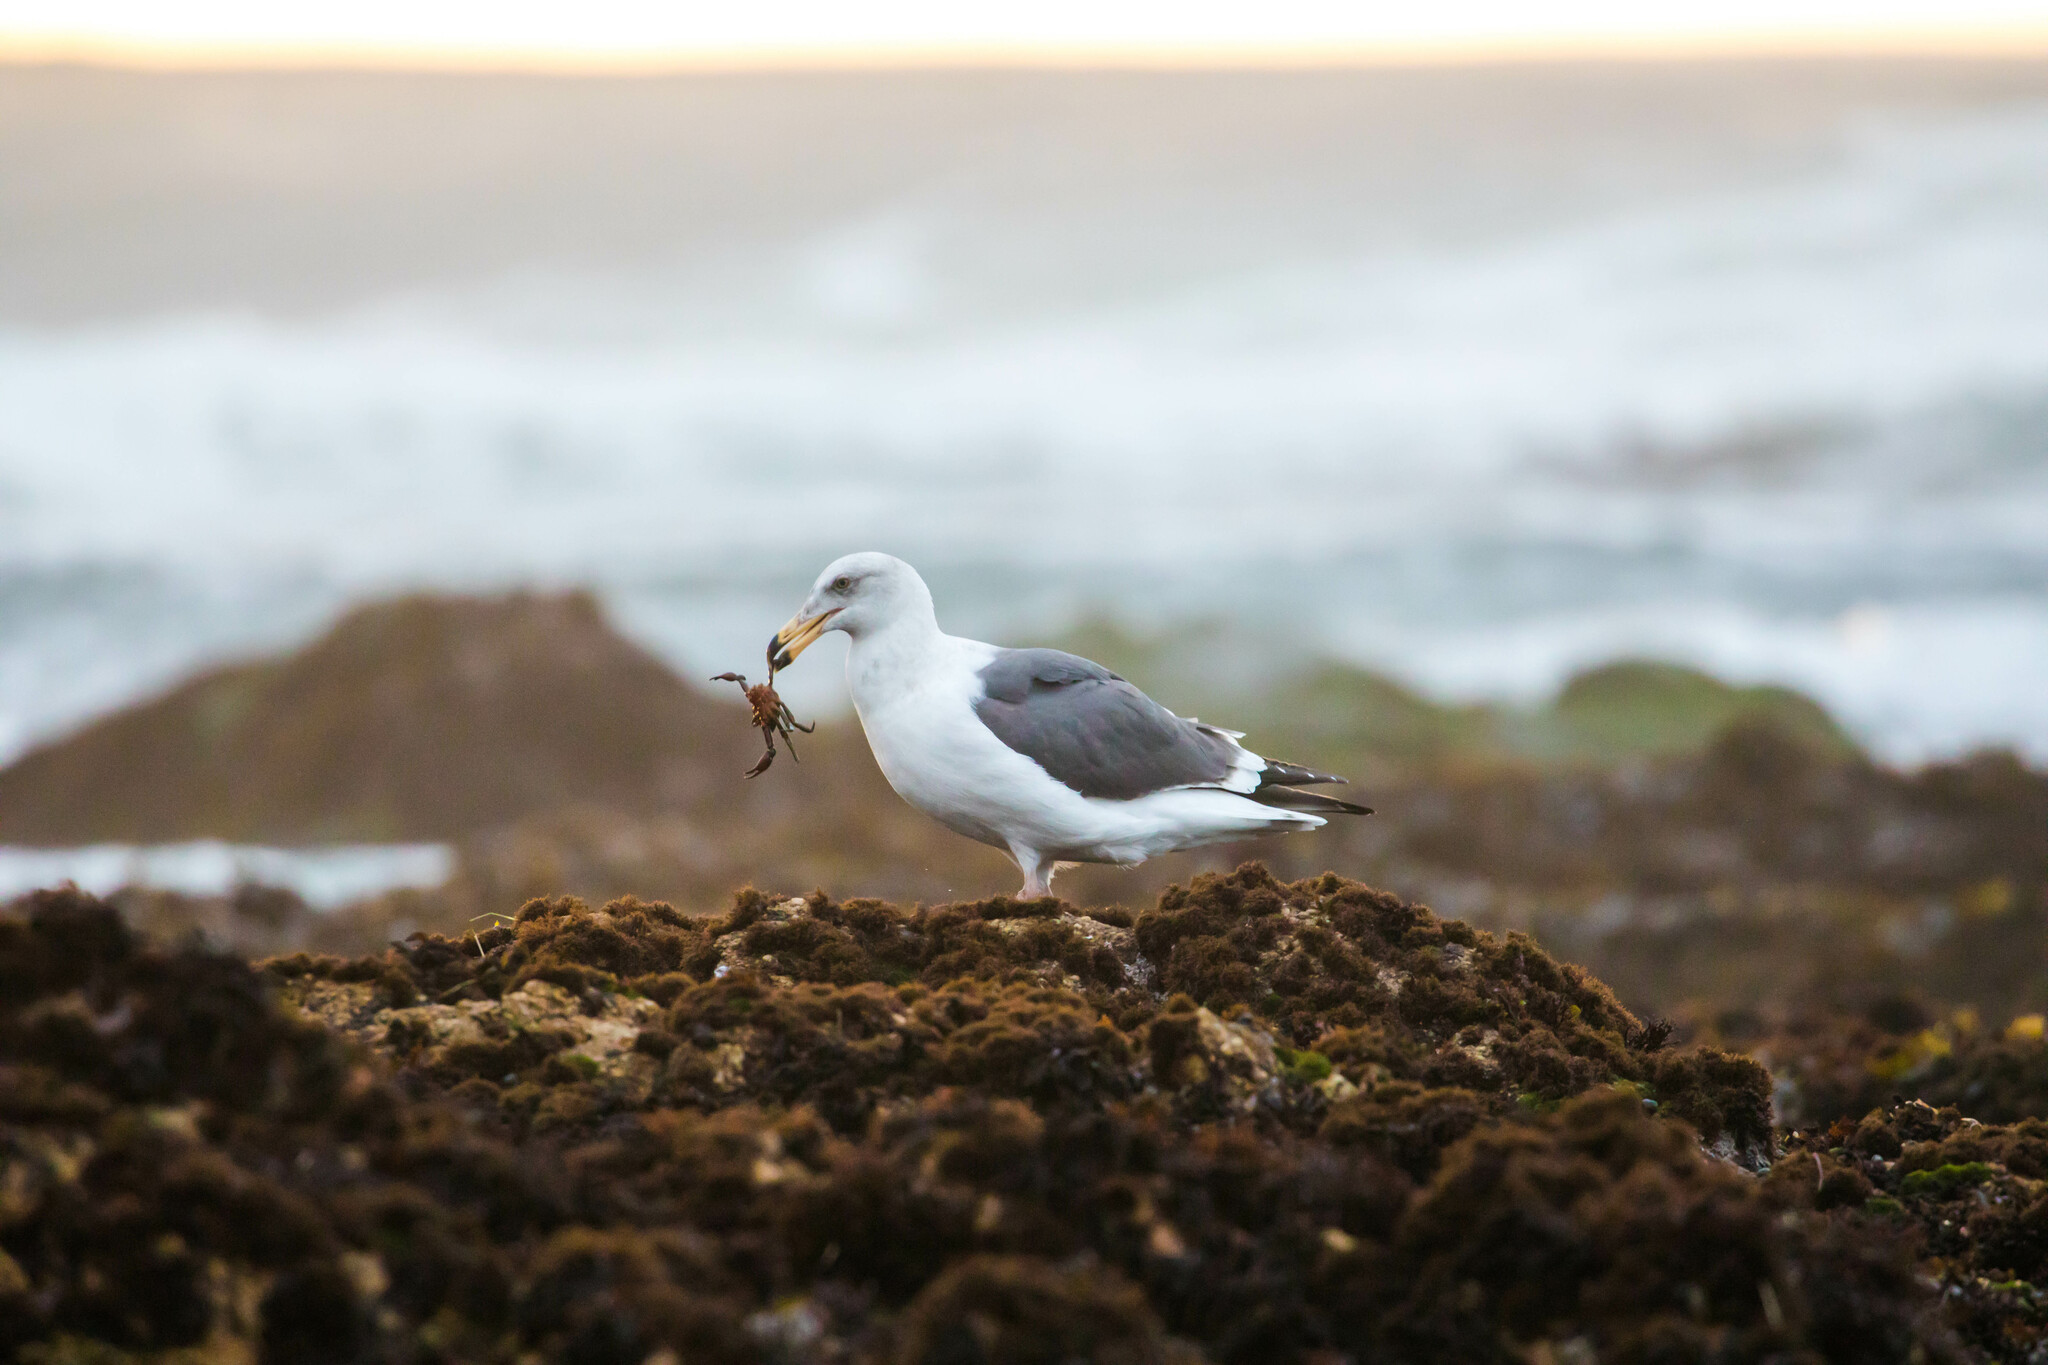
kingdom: Animalia
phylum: Chordata
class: Aves
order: Charadriiformes
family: Laridae
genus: Larus
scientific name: Larus occidentalis
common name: Western gull
